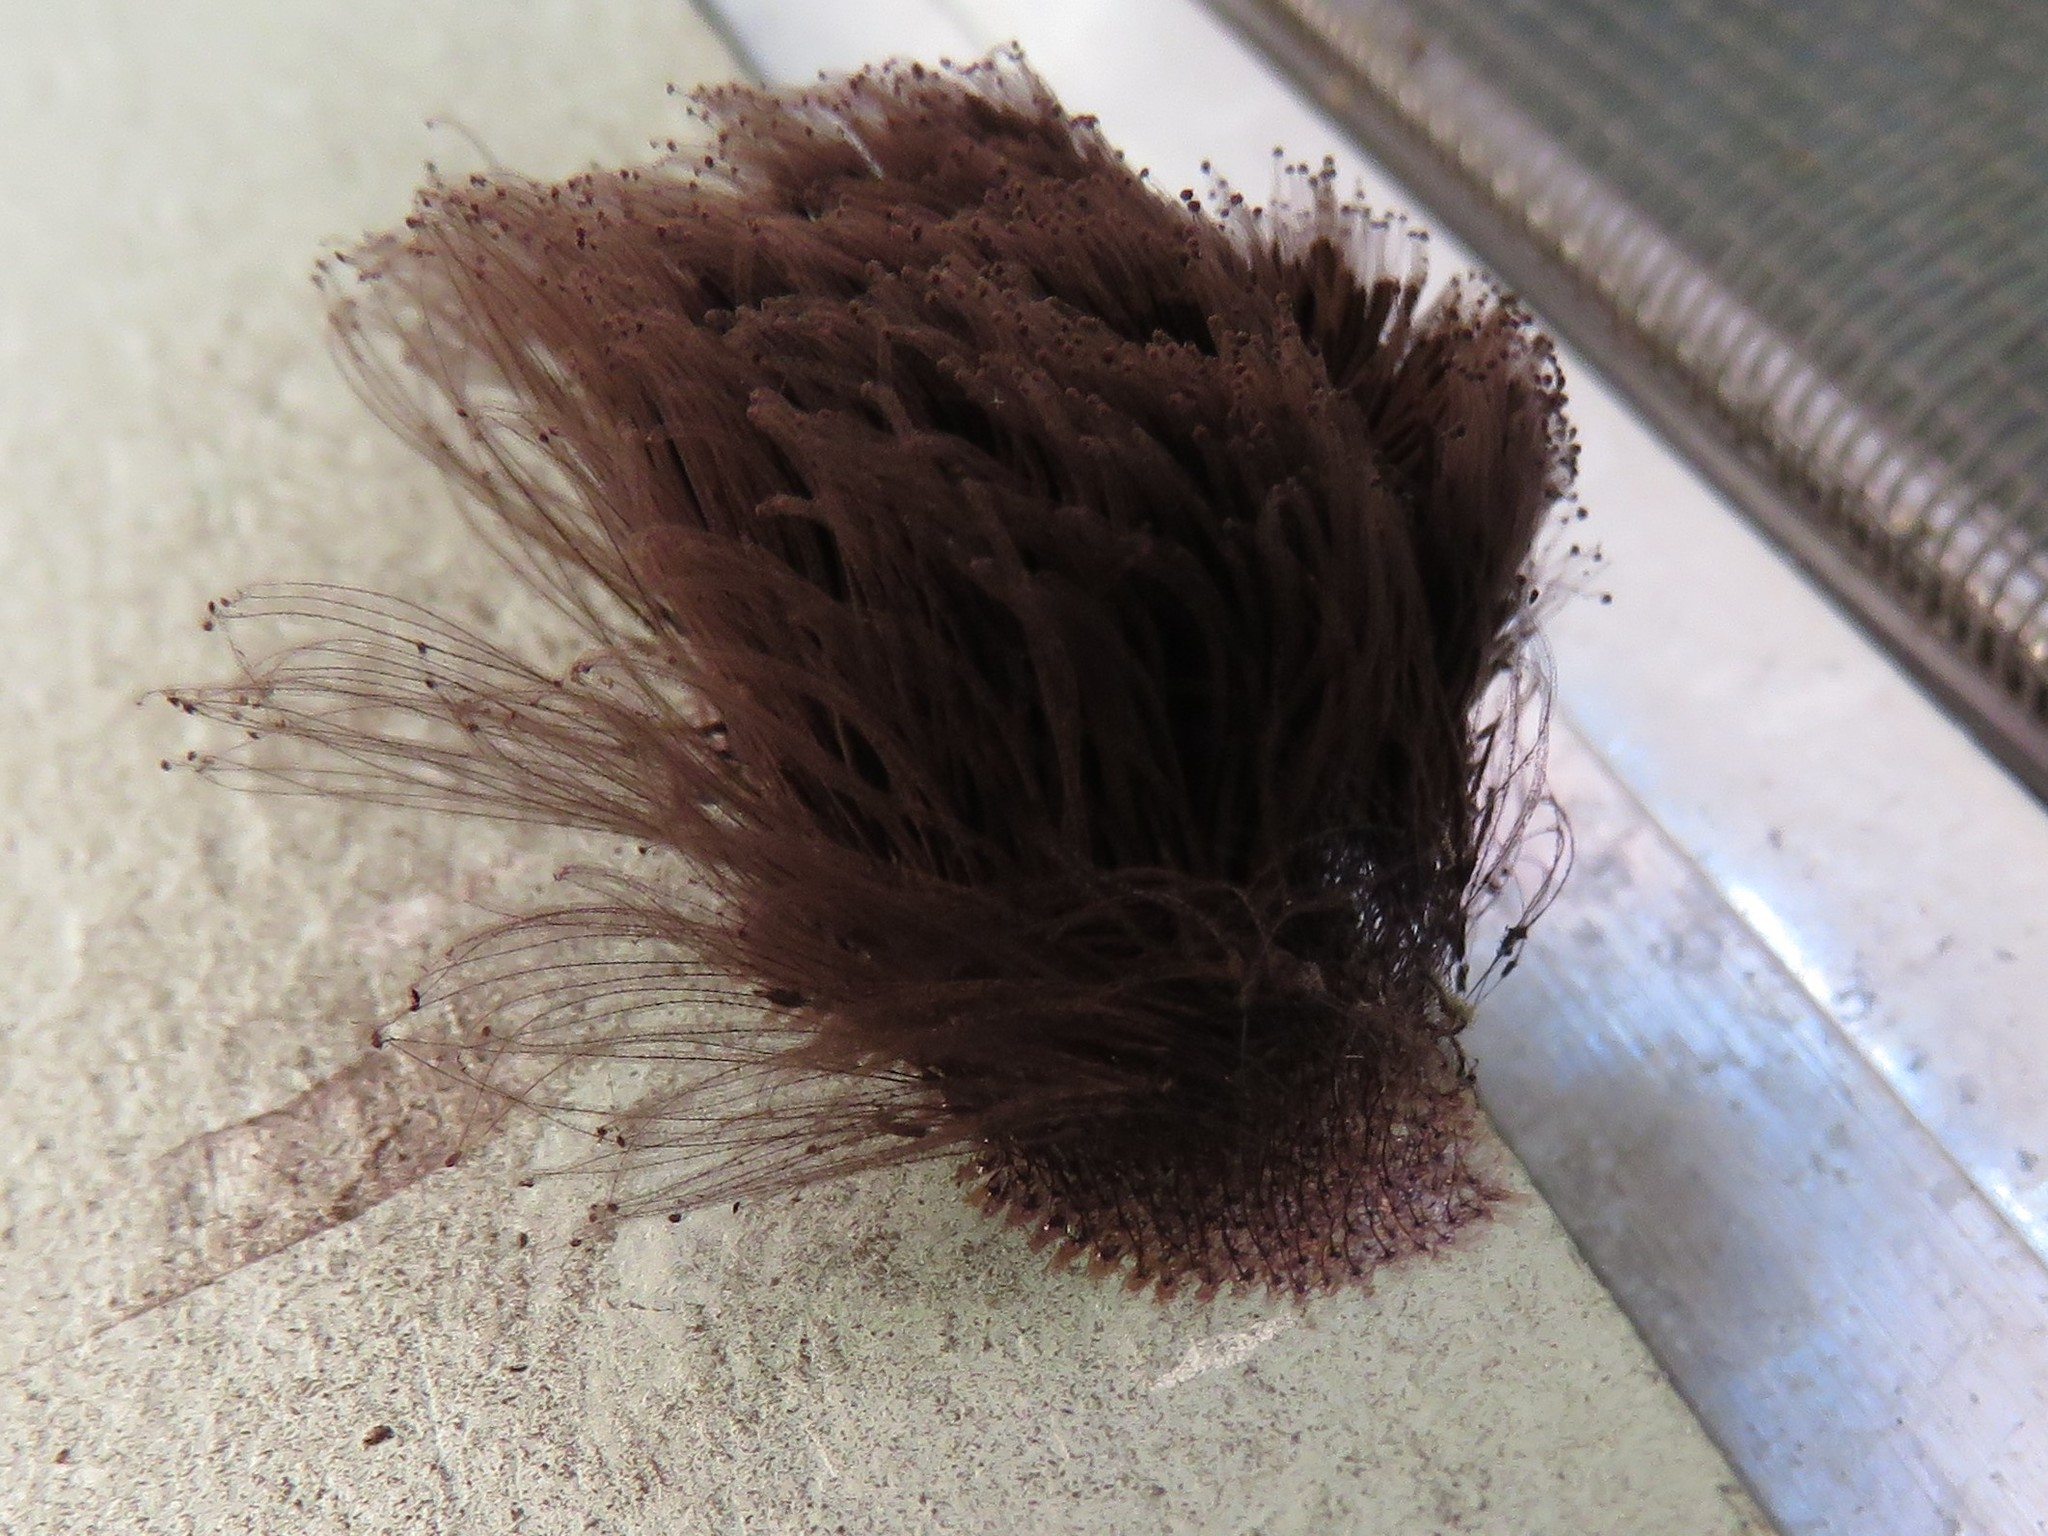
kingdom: Protozoa
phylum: Mycetozoa
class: Myxomycetes
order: Stemonitidales
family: Stemonitidaceae
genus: Stemonitis
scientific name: Stemonitis
